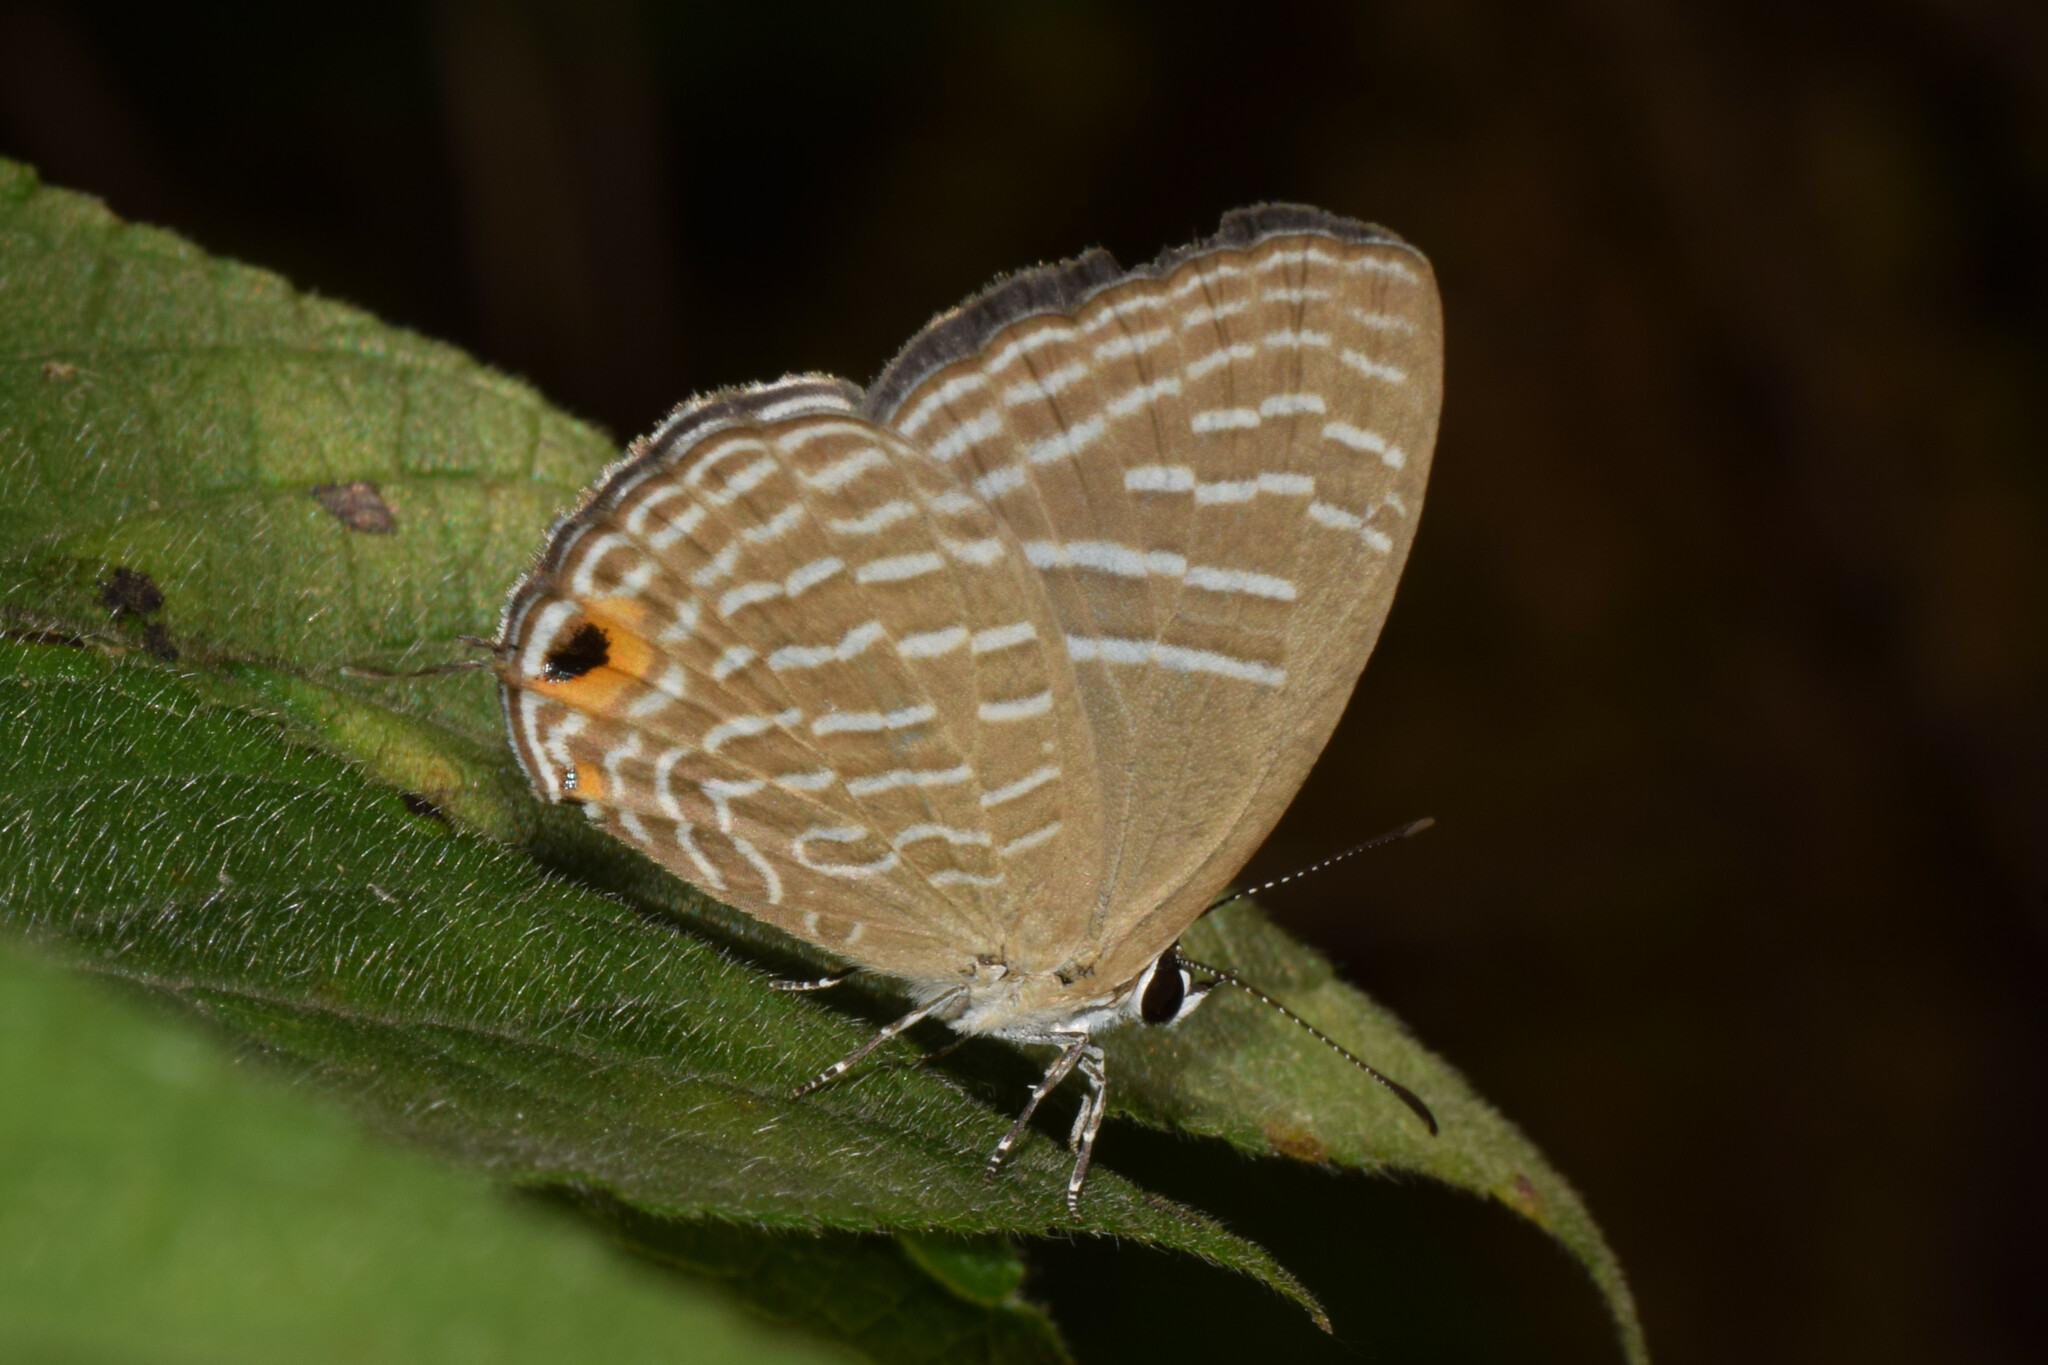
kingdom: Animalia
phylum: Arthropoda
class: Insecta
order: Lepidoptera
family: Lycaenidae
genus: Jamides
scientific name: Jamides alecto
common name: Metallic cerulean
